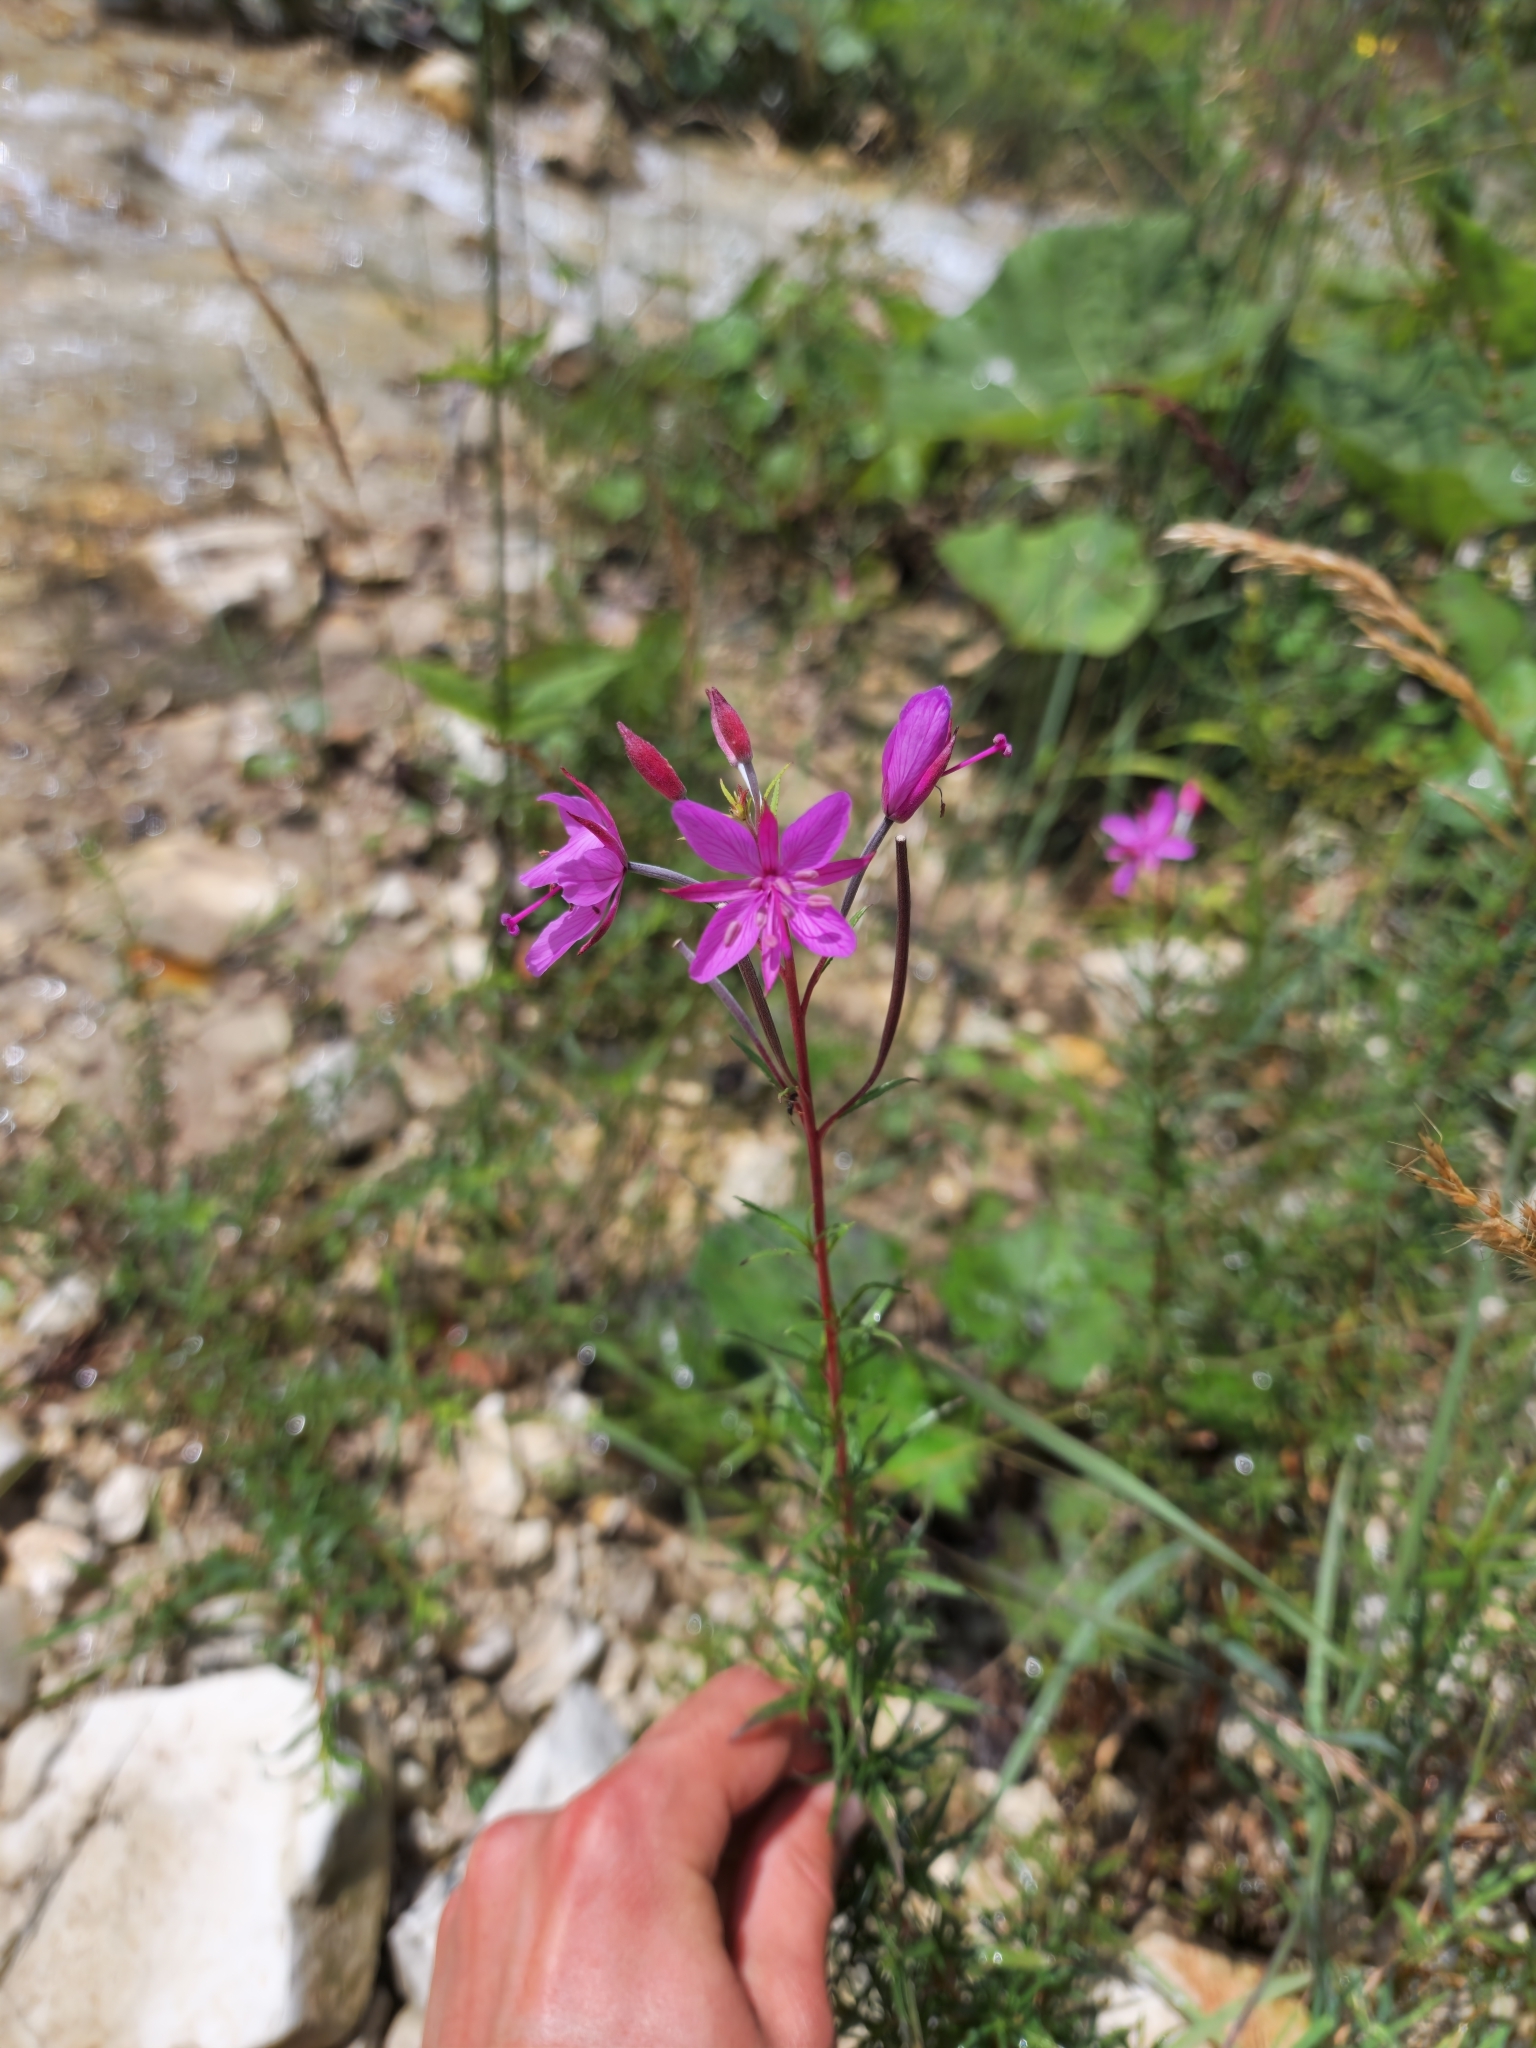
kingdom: Plantae
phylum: Tracheophyta
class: Magnoliopsida
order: Myrtales
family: Onagraceae
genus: Chamaenerion
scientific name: Chamaenerion dodonaei
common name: Rosemary-leaved willowherb
